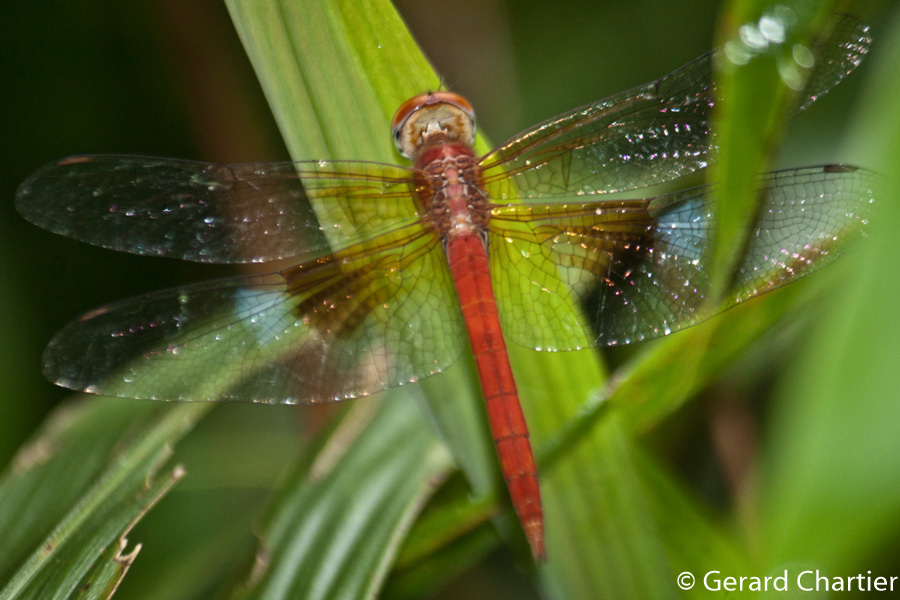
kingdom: Animalia
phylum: Arthropoda
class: Insecta
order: Odonata
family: Libellulidae
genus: Tholymis
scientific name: Tholymis tillarga
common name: Coral-tailed cloud wing
